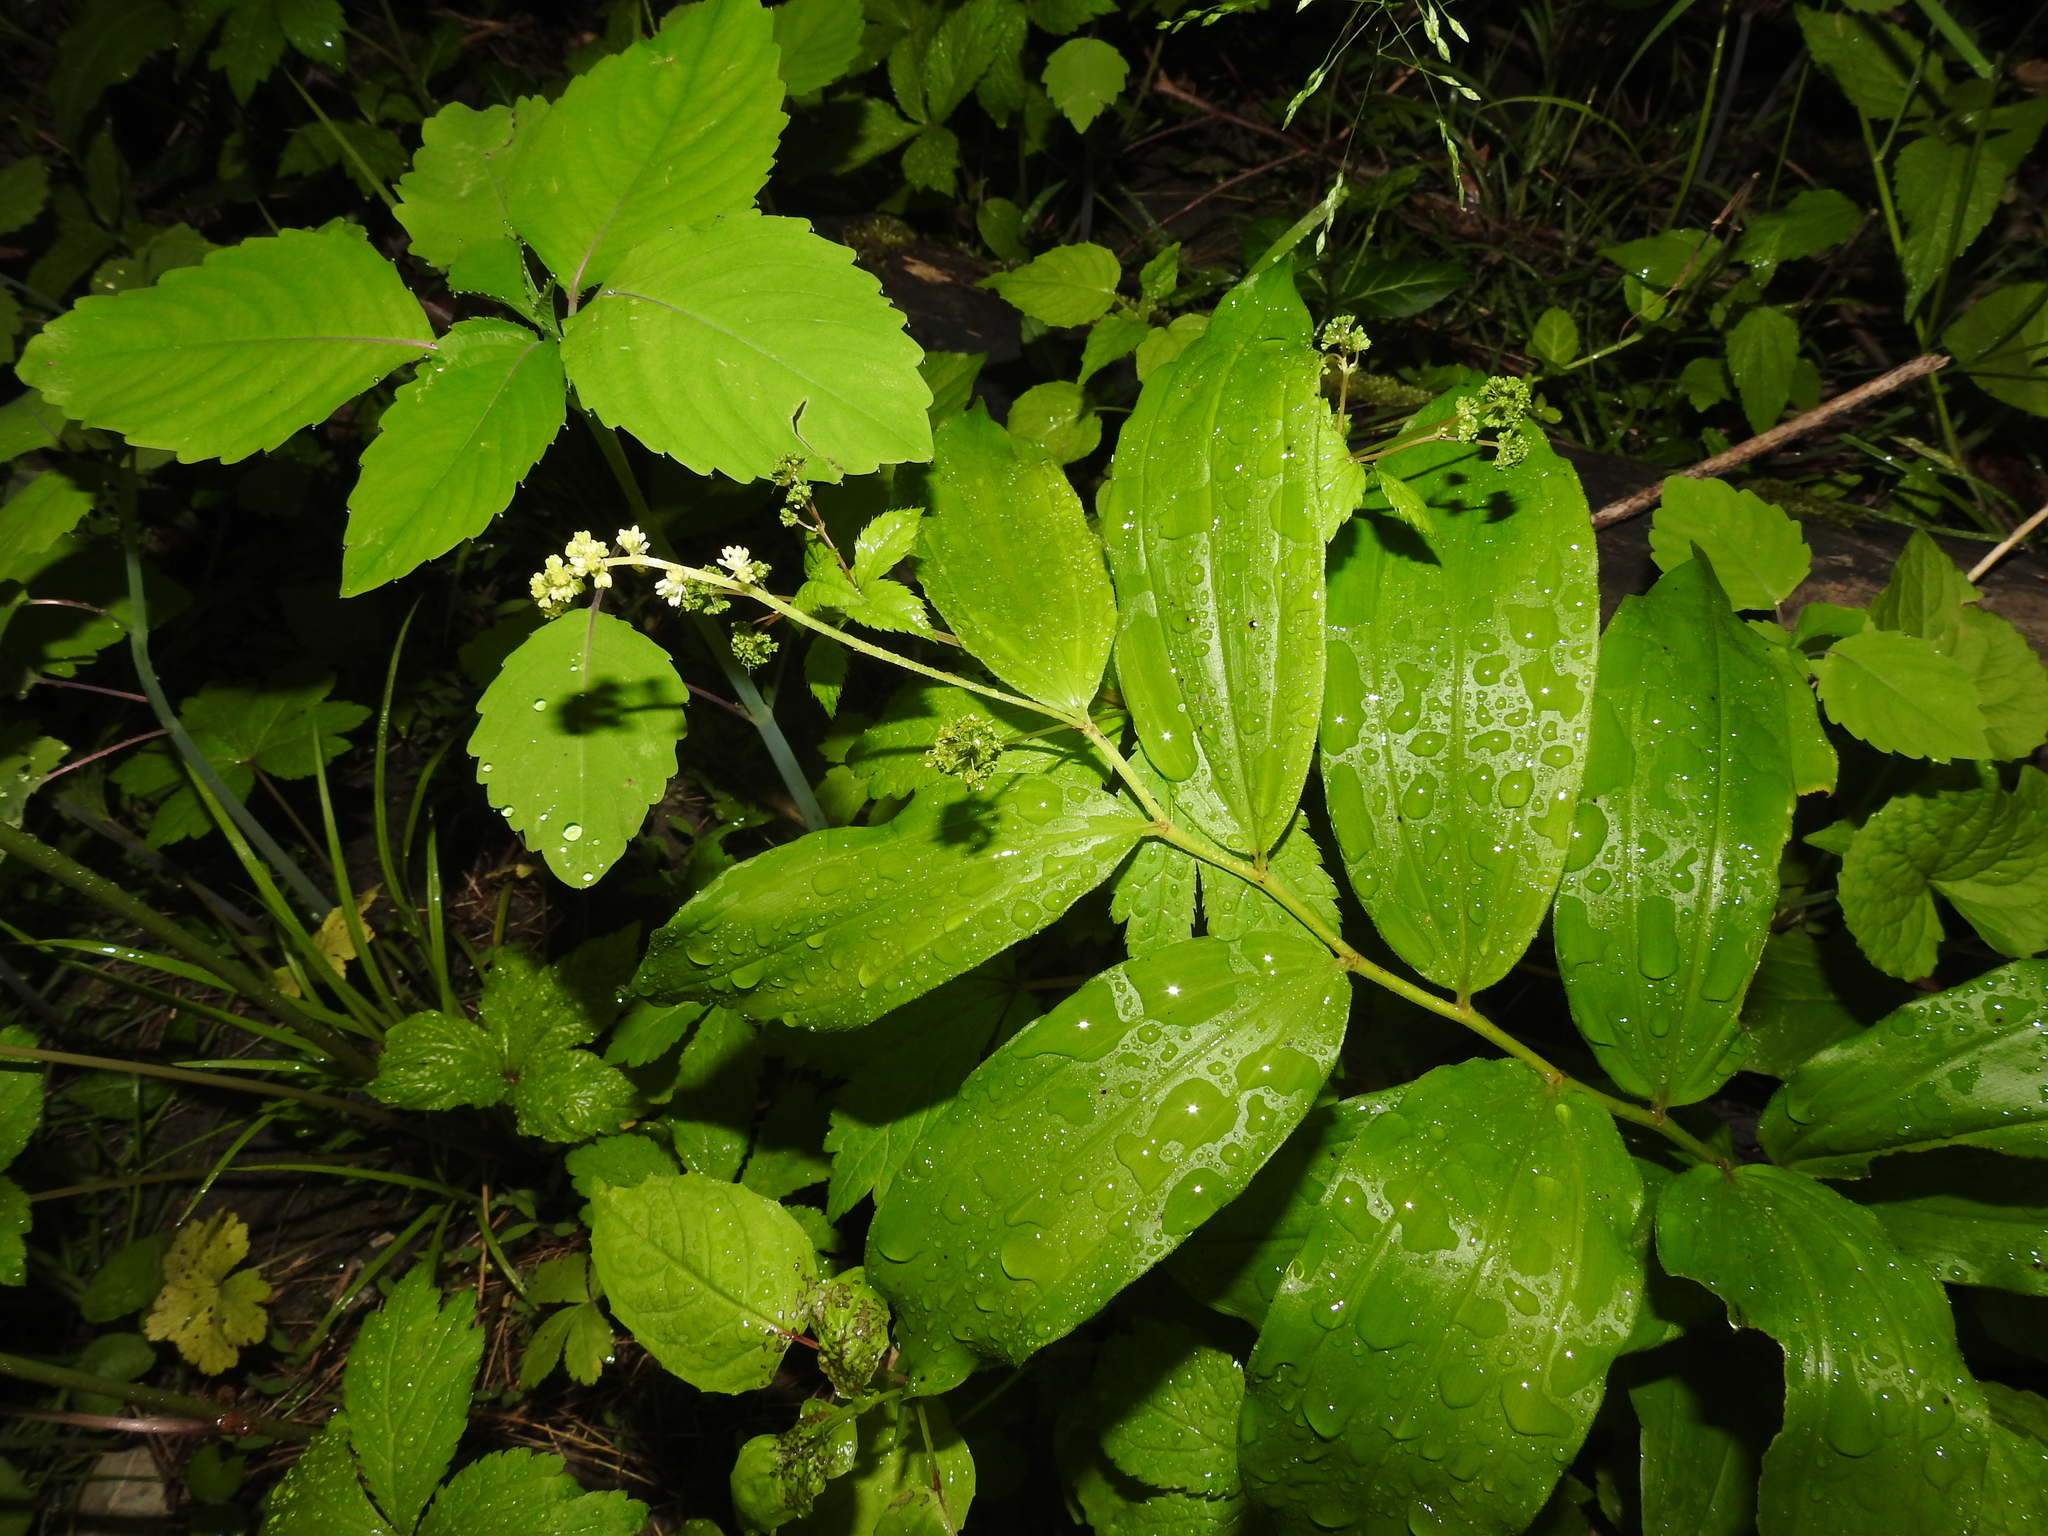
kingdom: Plantae
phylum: Tracheophyta
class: Liliopsida
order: Asparagales
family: Asparagaceae
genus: Maianthemum
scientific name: Maianthemum racemosum
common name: False spikenard
